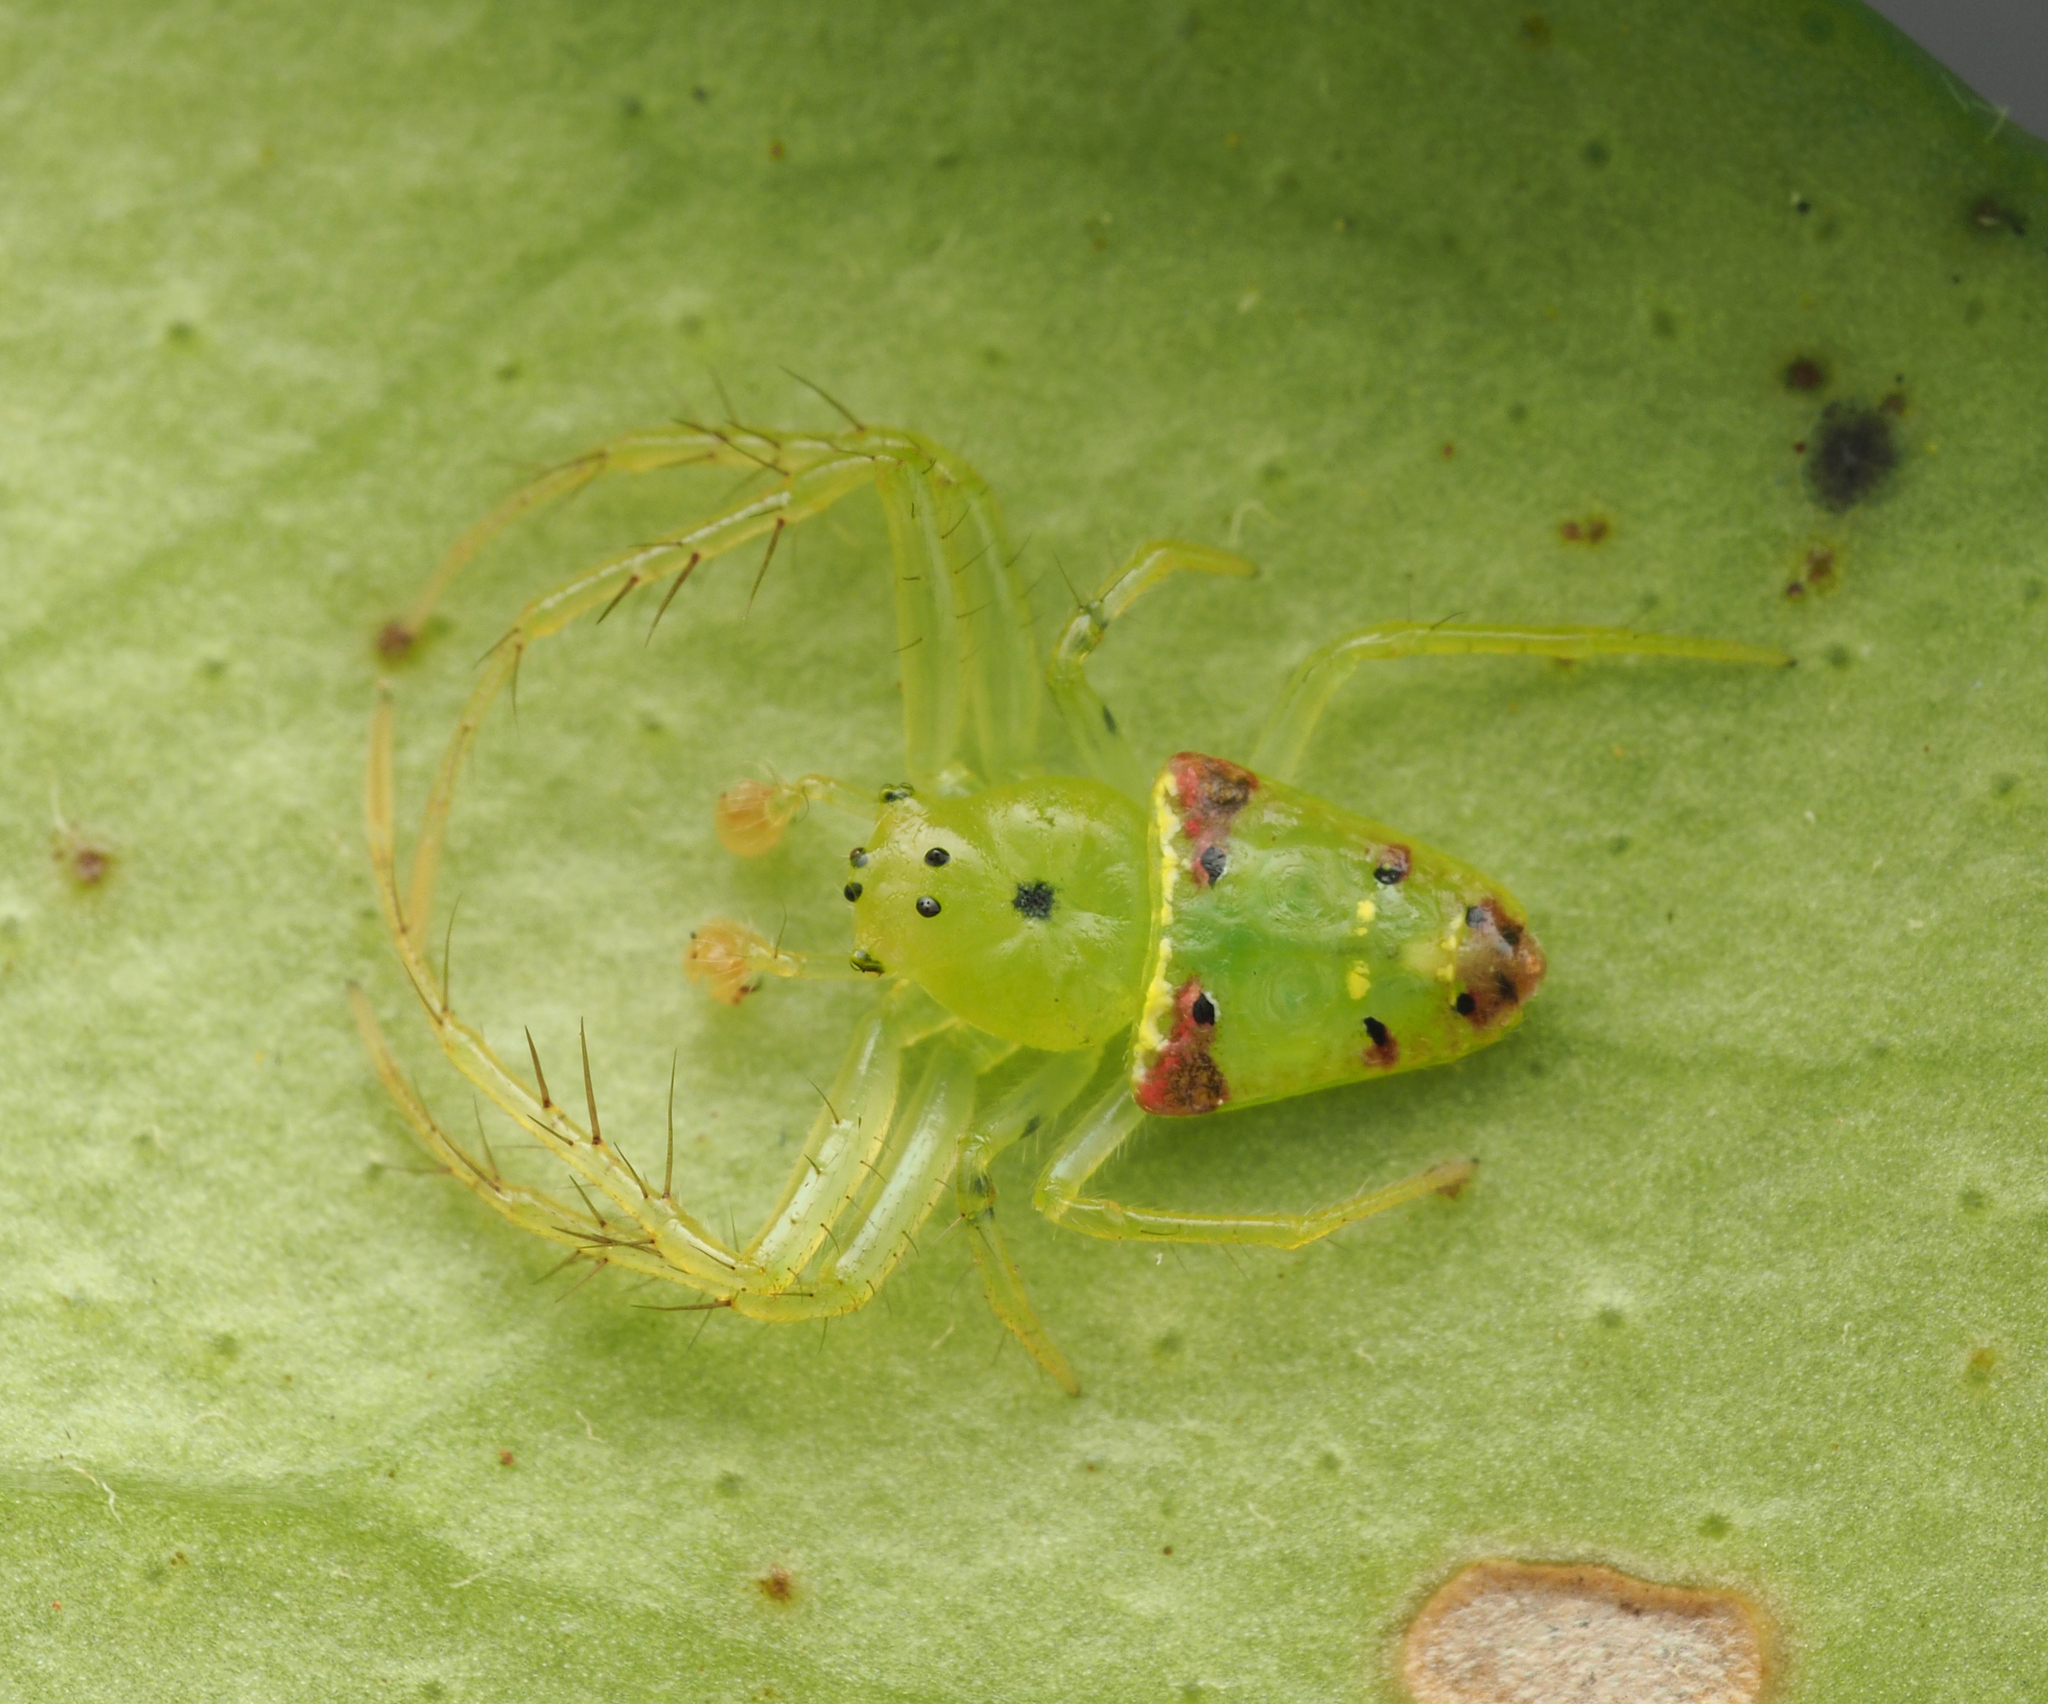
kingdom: Animalia
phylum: Arthropoda
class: Arachnida
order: Araneae
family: Arkyidae
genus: Arkys
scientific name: Arkys gracilis
